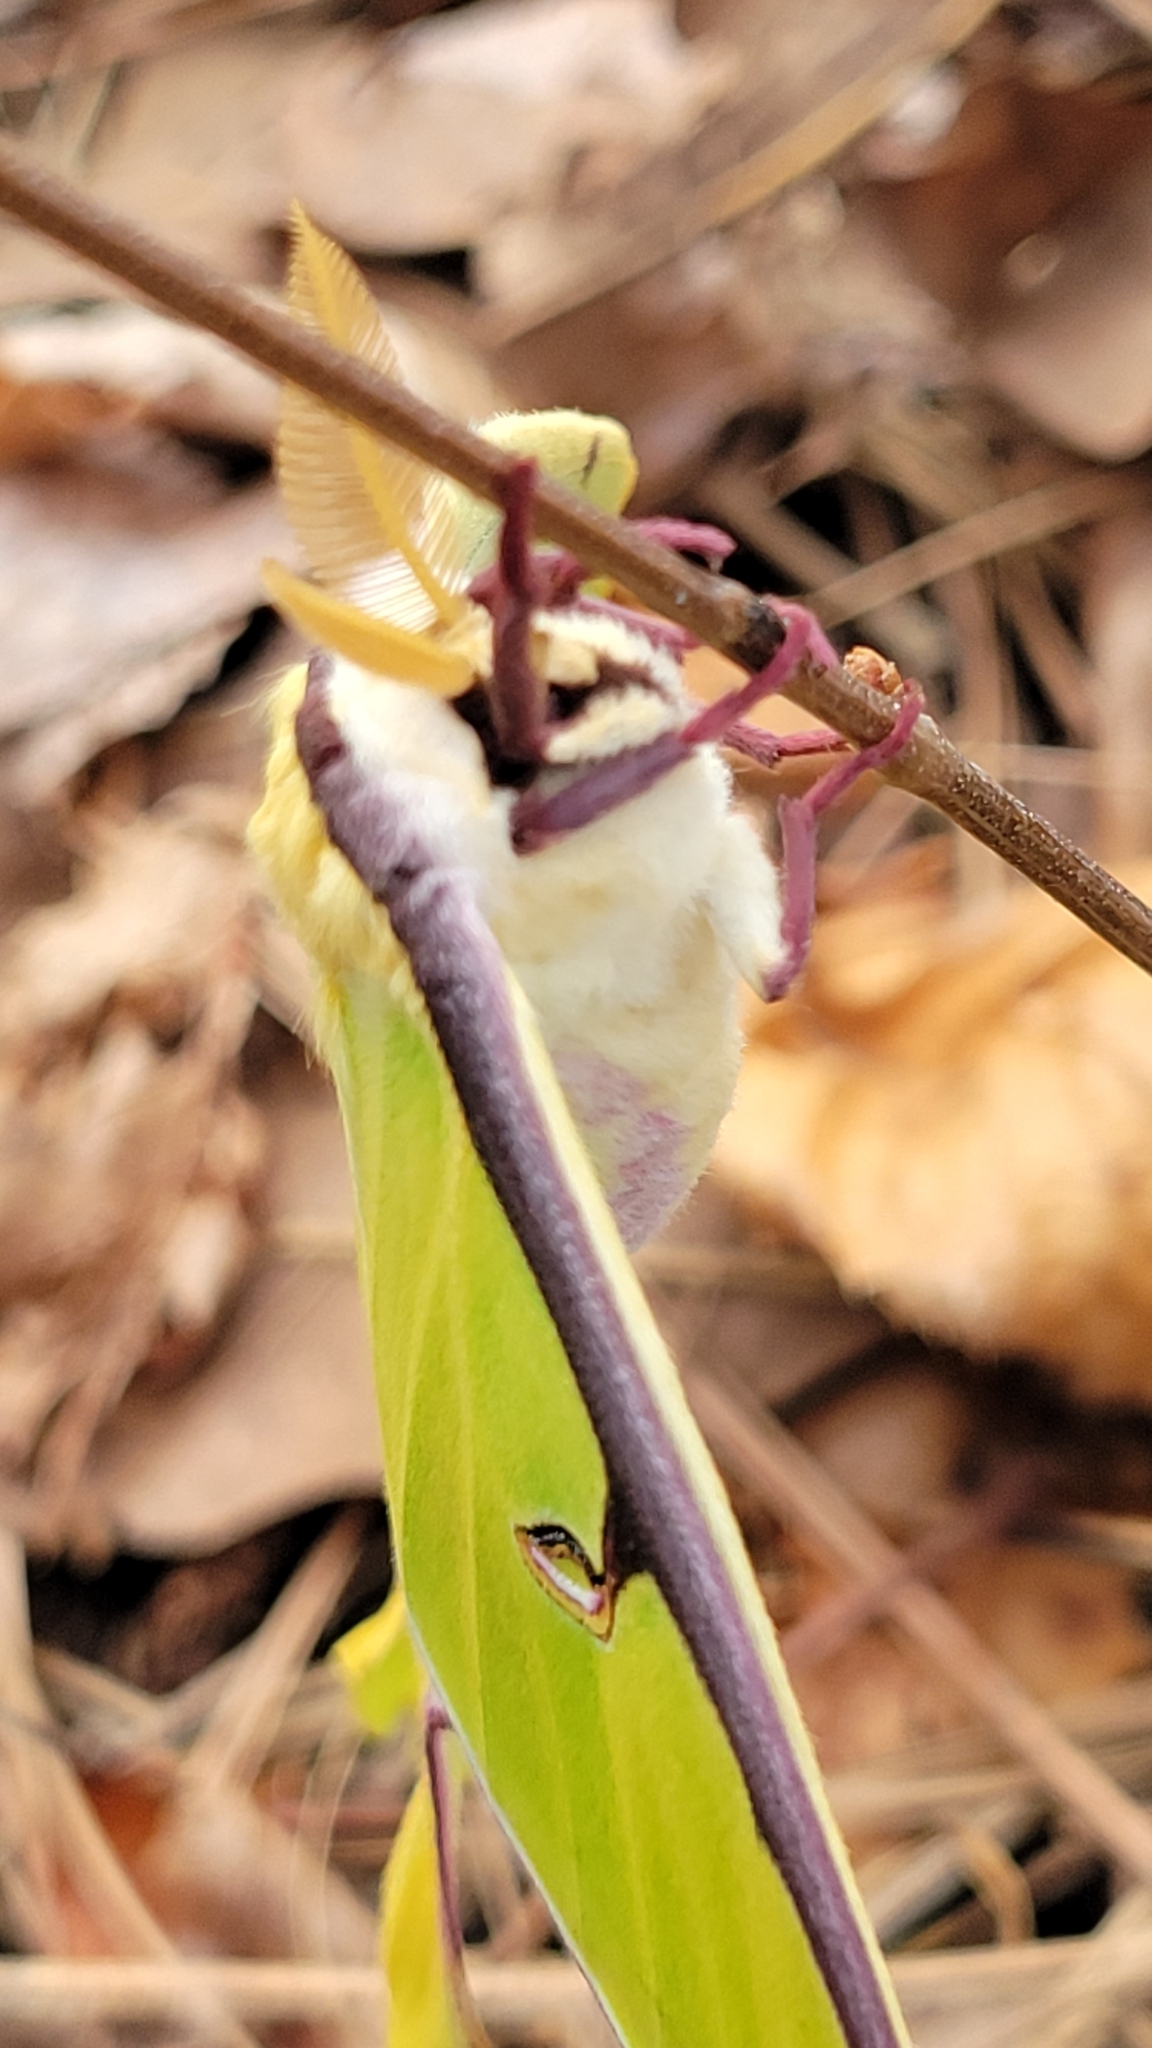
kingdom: Animalia
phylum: Arthropoda
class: Insecta
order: Lepidoptera
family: Saturniidae
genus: Actias
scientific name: Actias luna
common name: Luna moth
